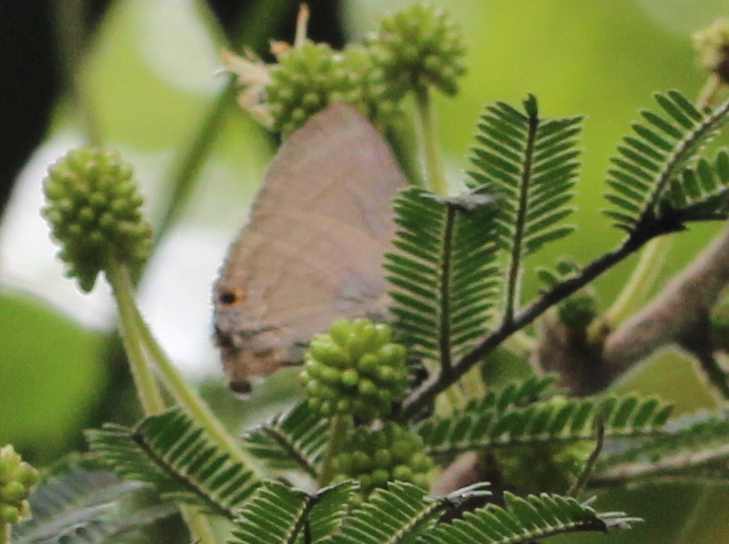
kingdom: Animalia
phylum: Arthropoda
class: Insecta
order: Lepidoptera
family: Lycaenidae
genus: Rapala
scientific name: Rapala manea
